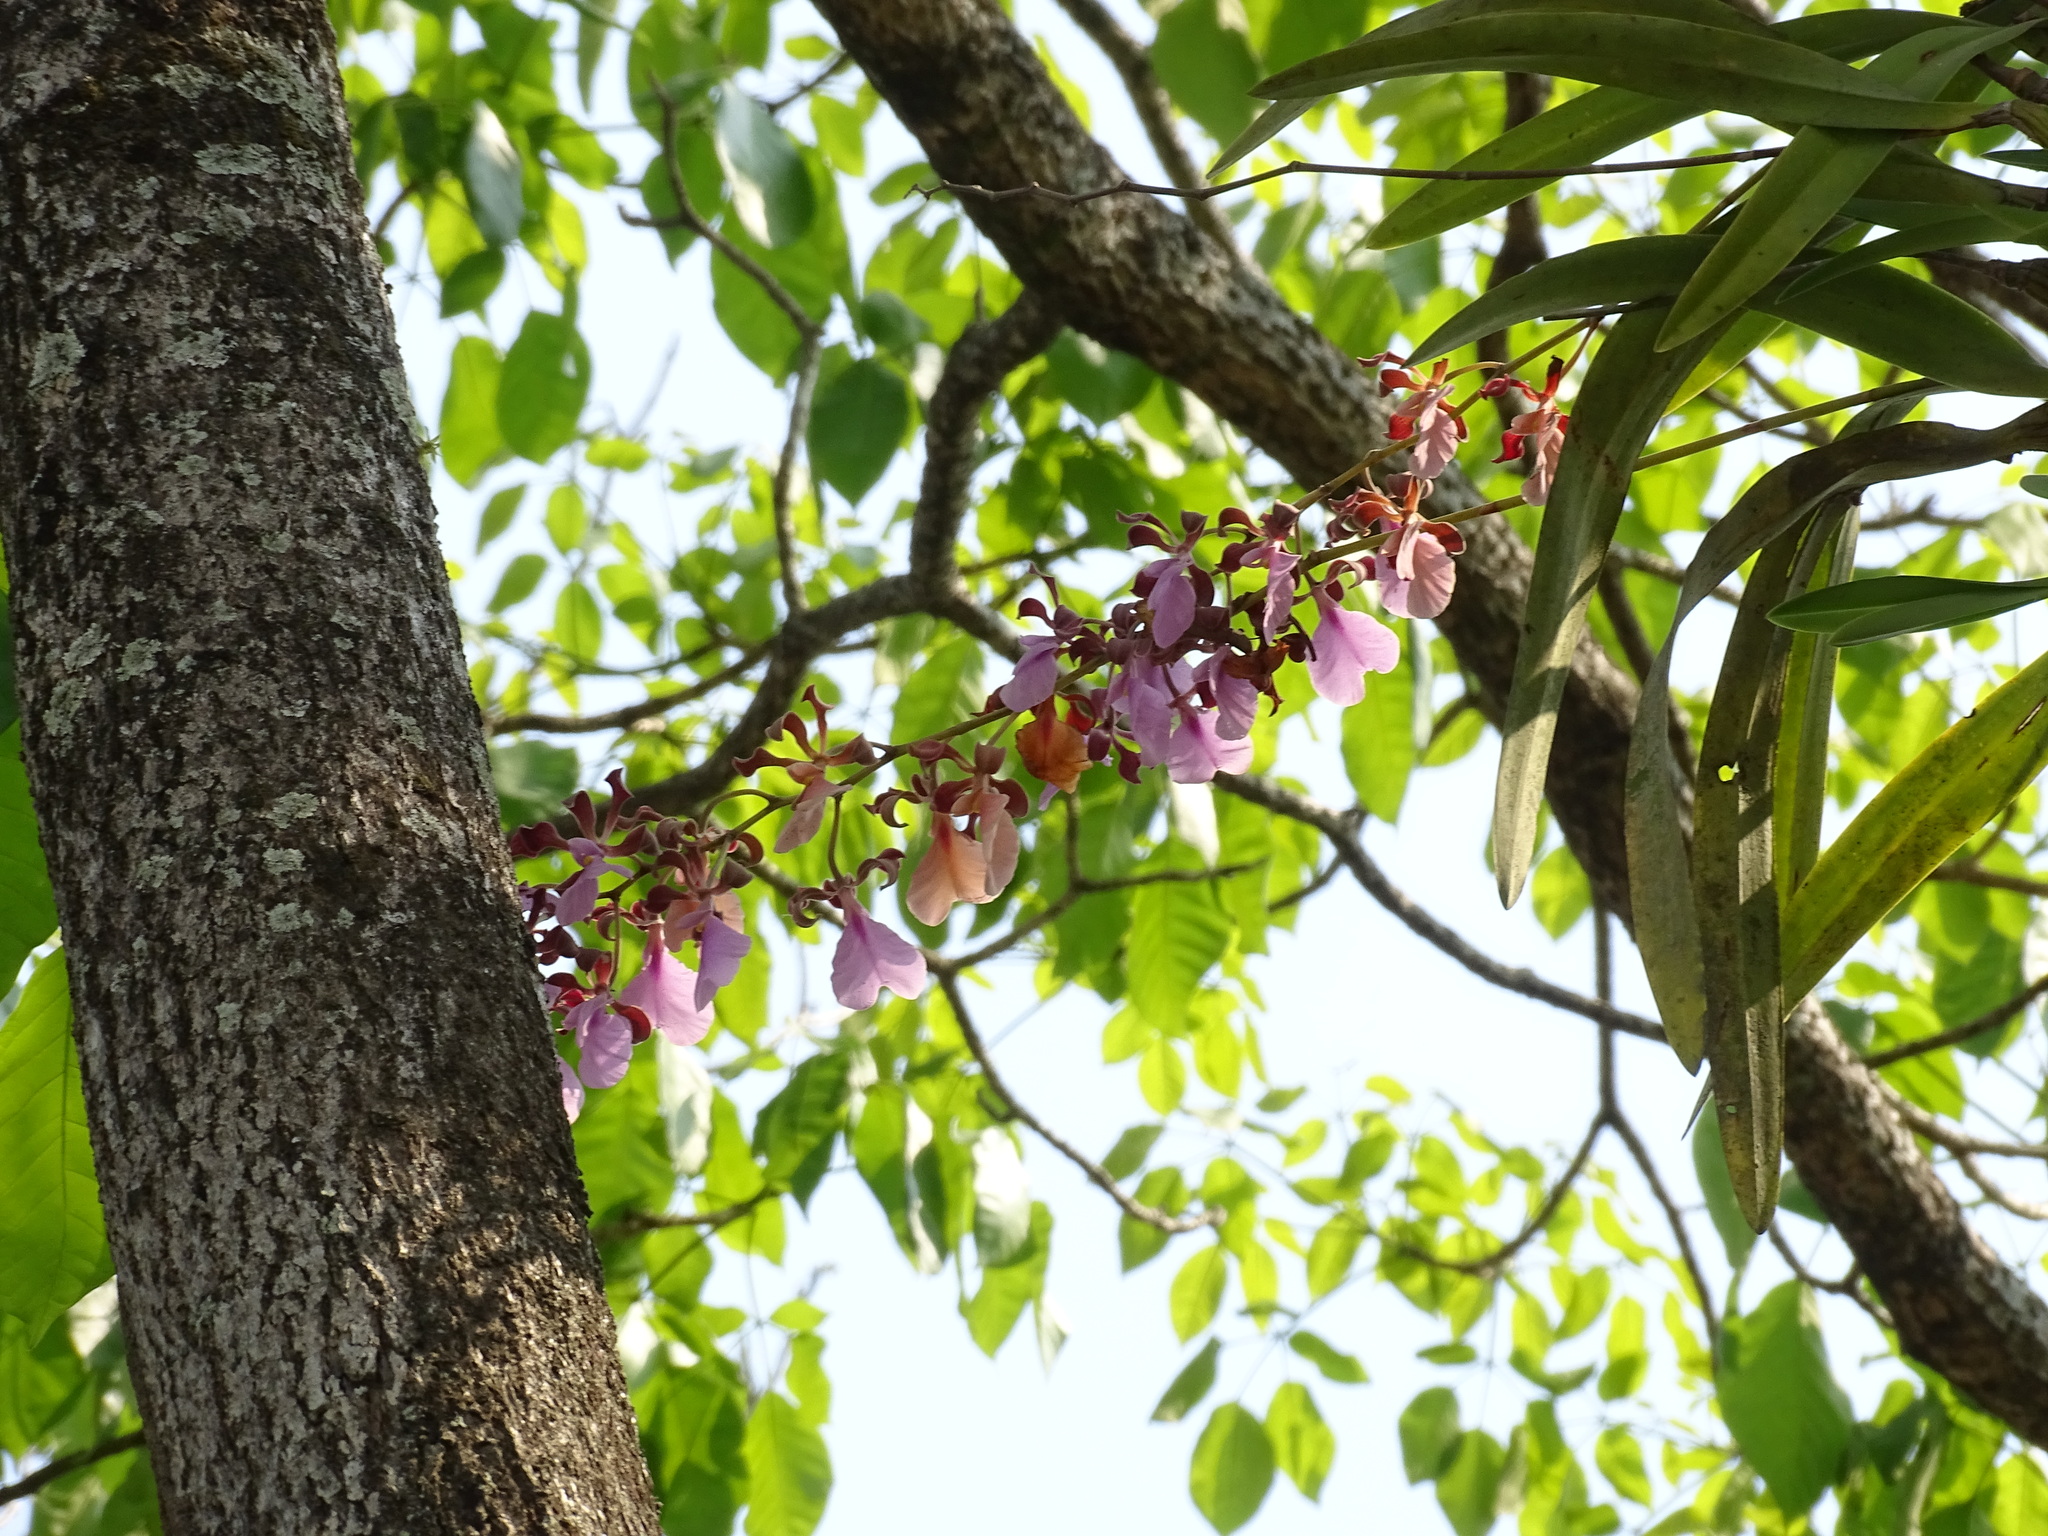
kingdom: Plantae
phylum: Tracheophyta
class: Liliopsida
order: Asparagales
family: Orchidaceae
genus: Encyclia
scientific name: Encyclia cordigera
